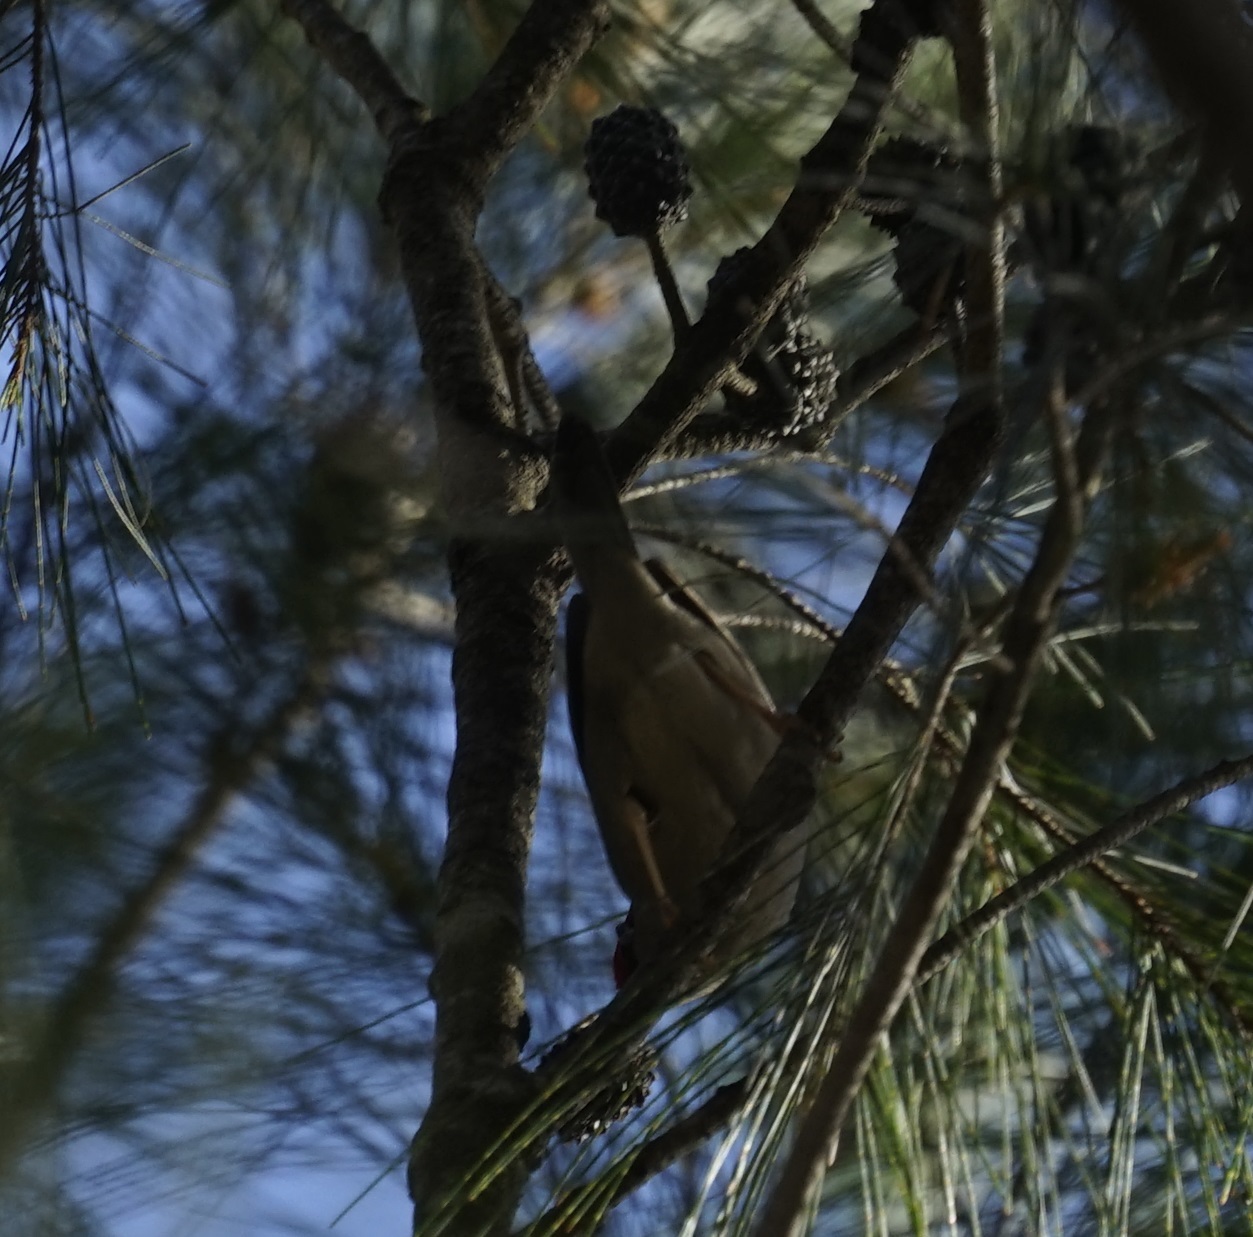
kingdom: Animalia
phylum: Chordata
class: Aves
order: Passeriformes
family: Estrildidae
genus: Neochmia
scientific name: Neochmia temporalis
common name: Red-browed finch
